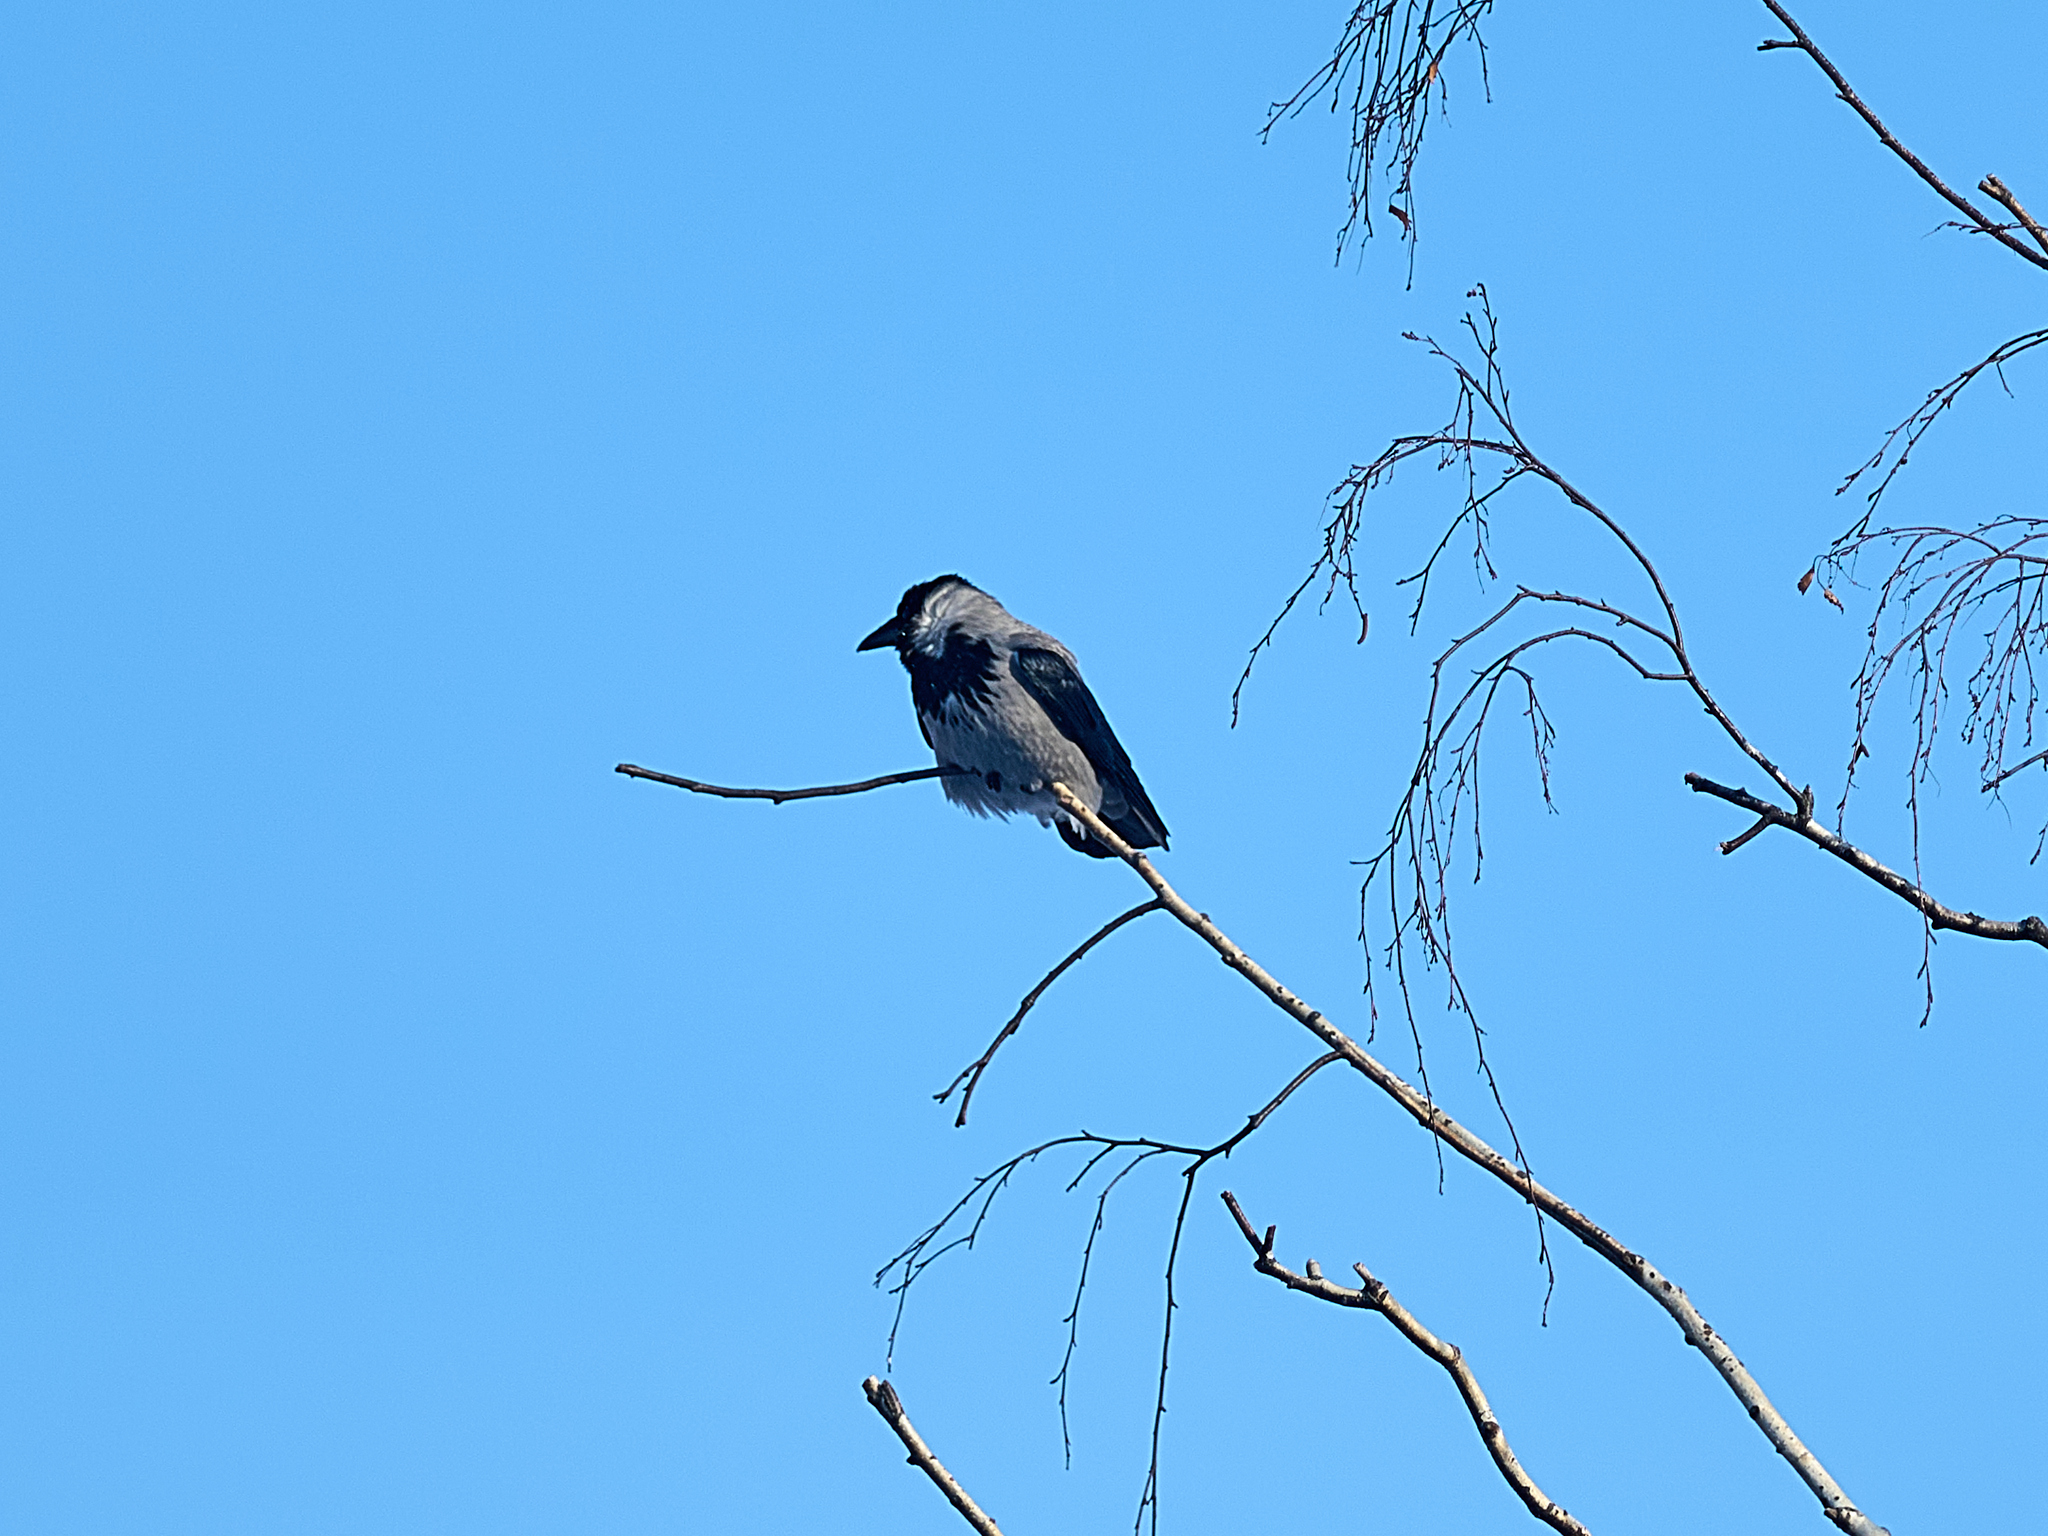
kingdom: Animalia
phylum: Chordata
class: Aves
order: Passeriformes
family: Corvidae
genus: Corvus
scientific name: Corvus cornix
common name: Hooded crow
